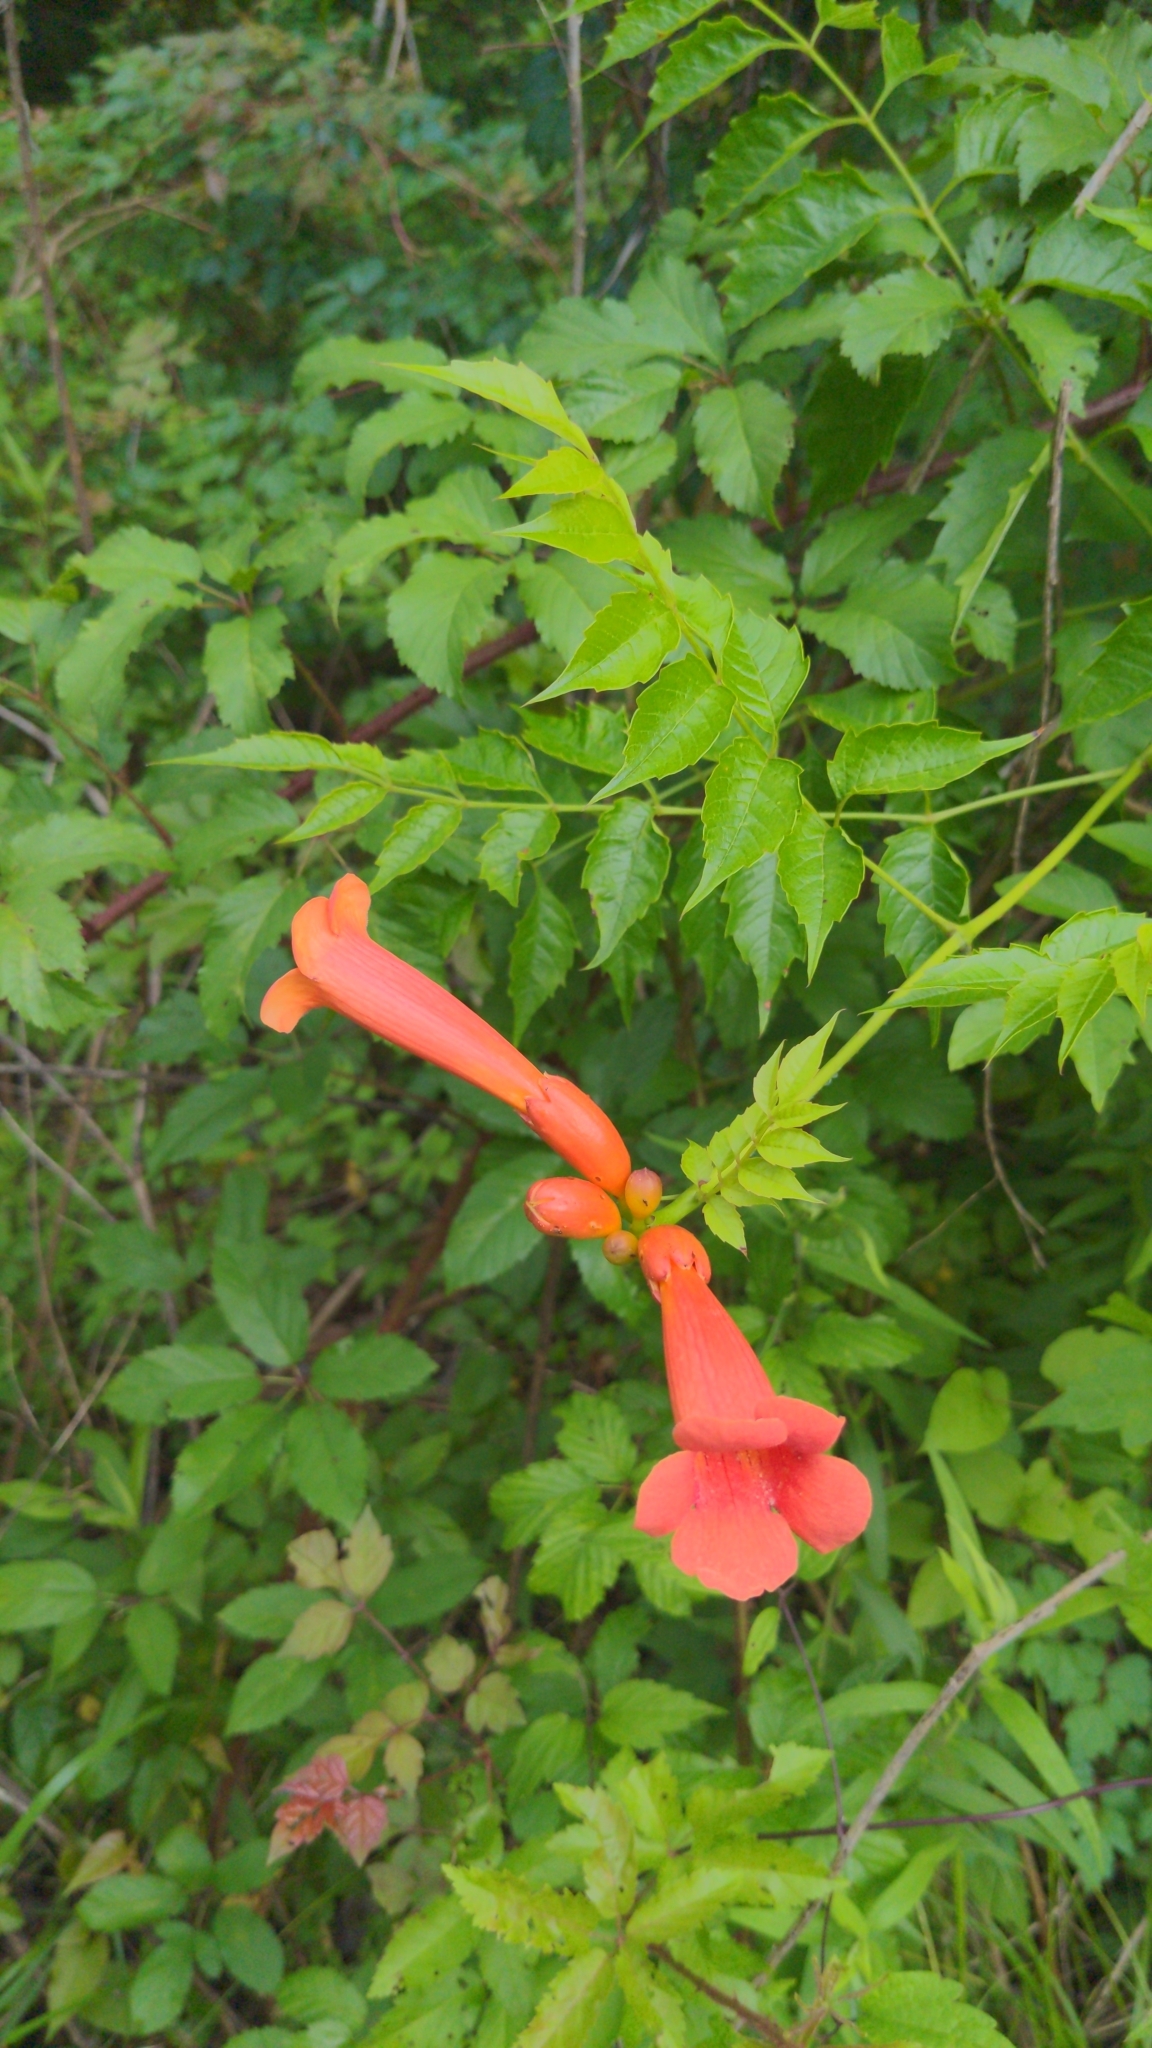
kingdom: Plantae
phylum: Tracheophyta
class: Magnoliopsida
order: Lamiales
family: Bignoniaceae
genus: Campsis
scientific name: Campsis radicans
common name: Trumpet-creeper
